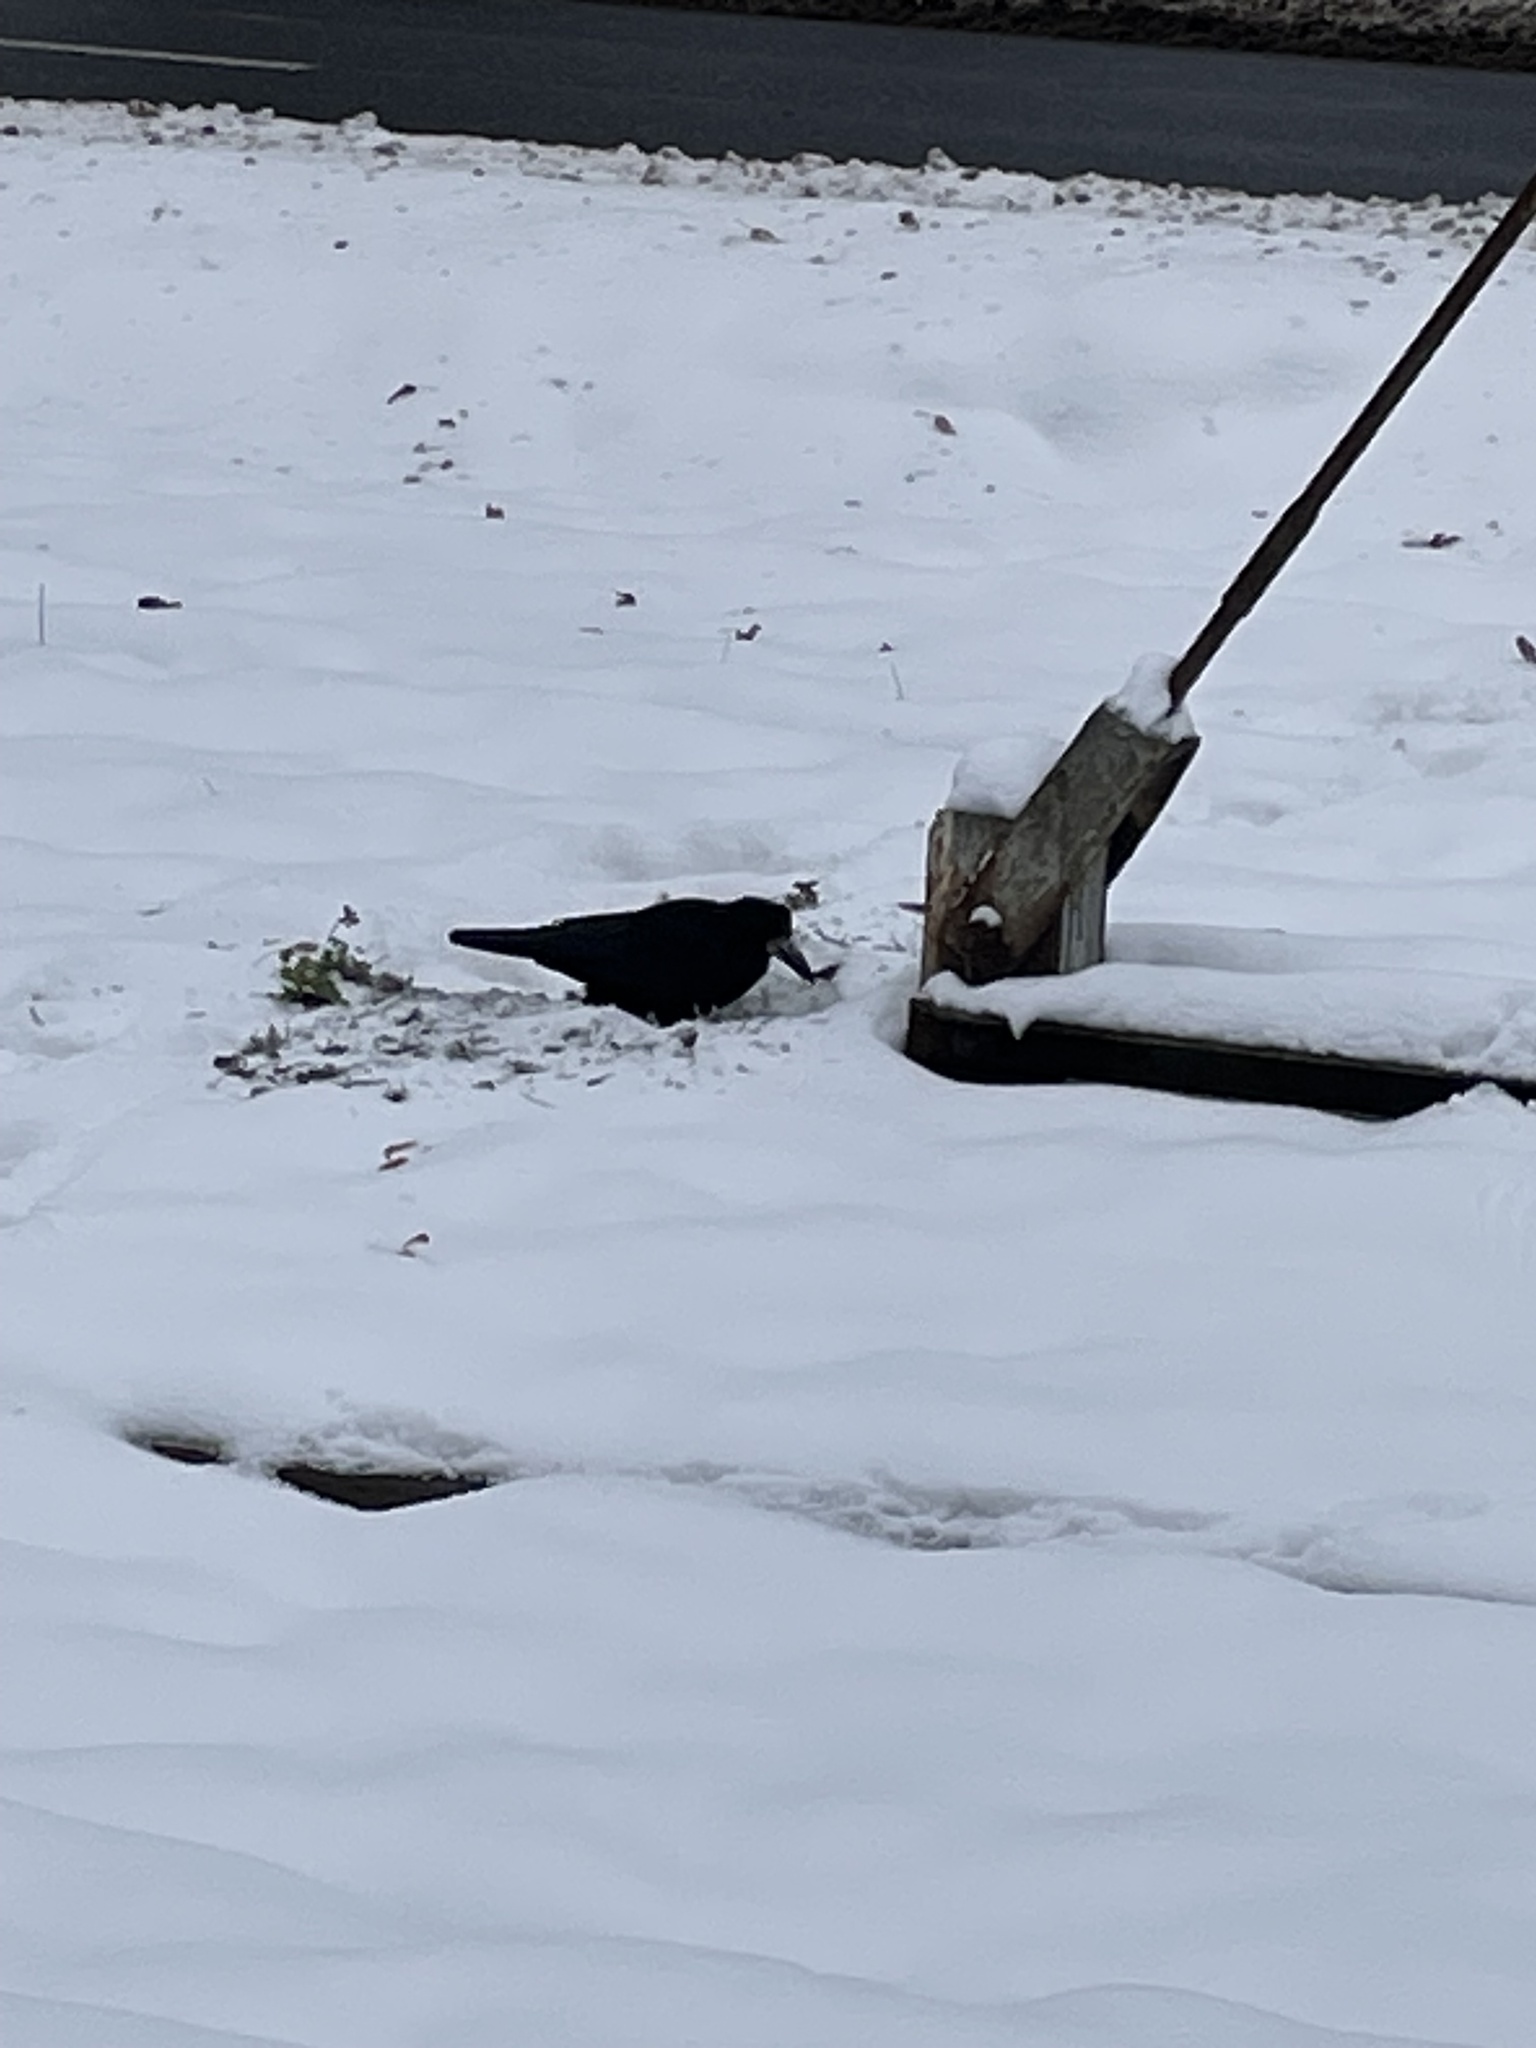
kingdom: Animalia
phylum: Chordata
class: Aves
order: Passeriformes
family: Corvidae
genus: Corvus
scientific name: Corvus frugilegus
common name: Rook
